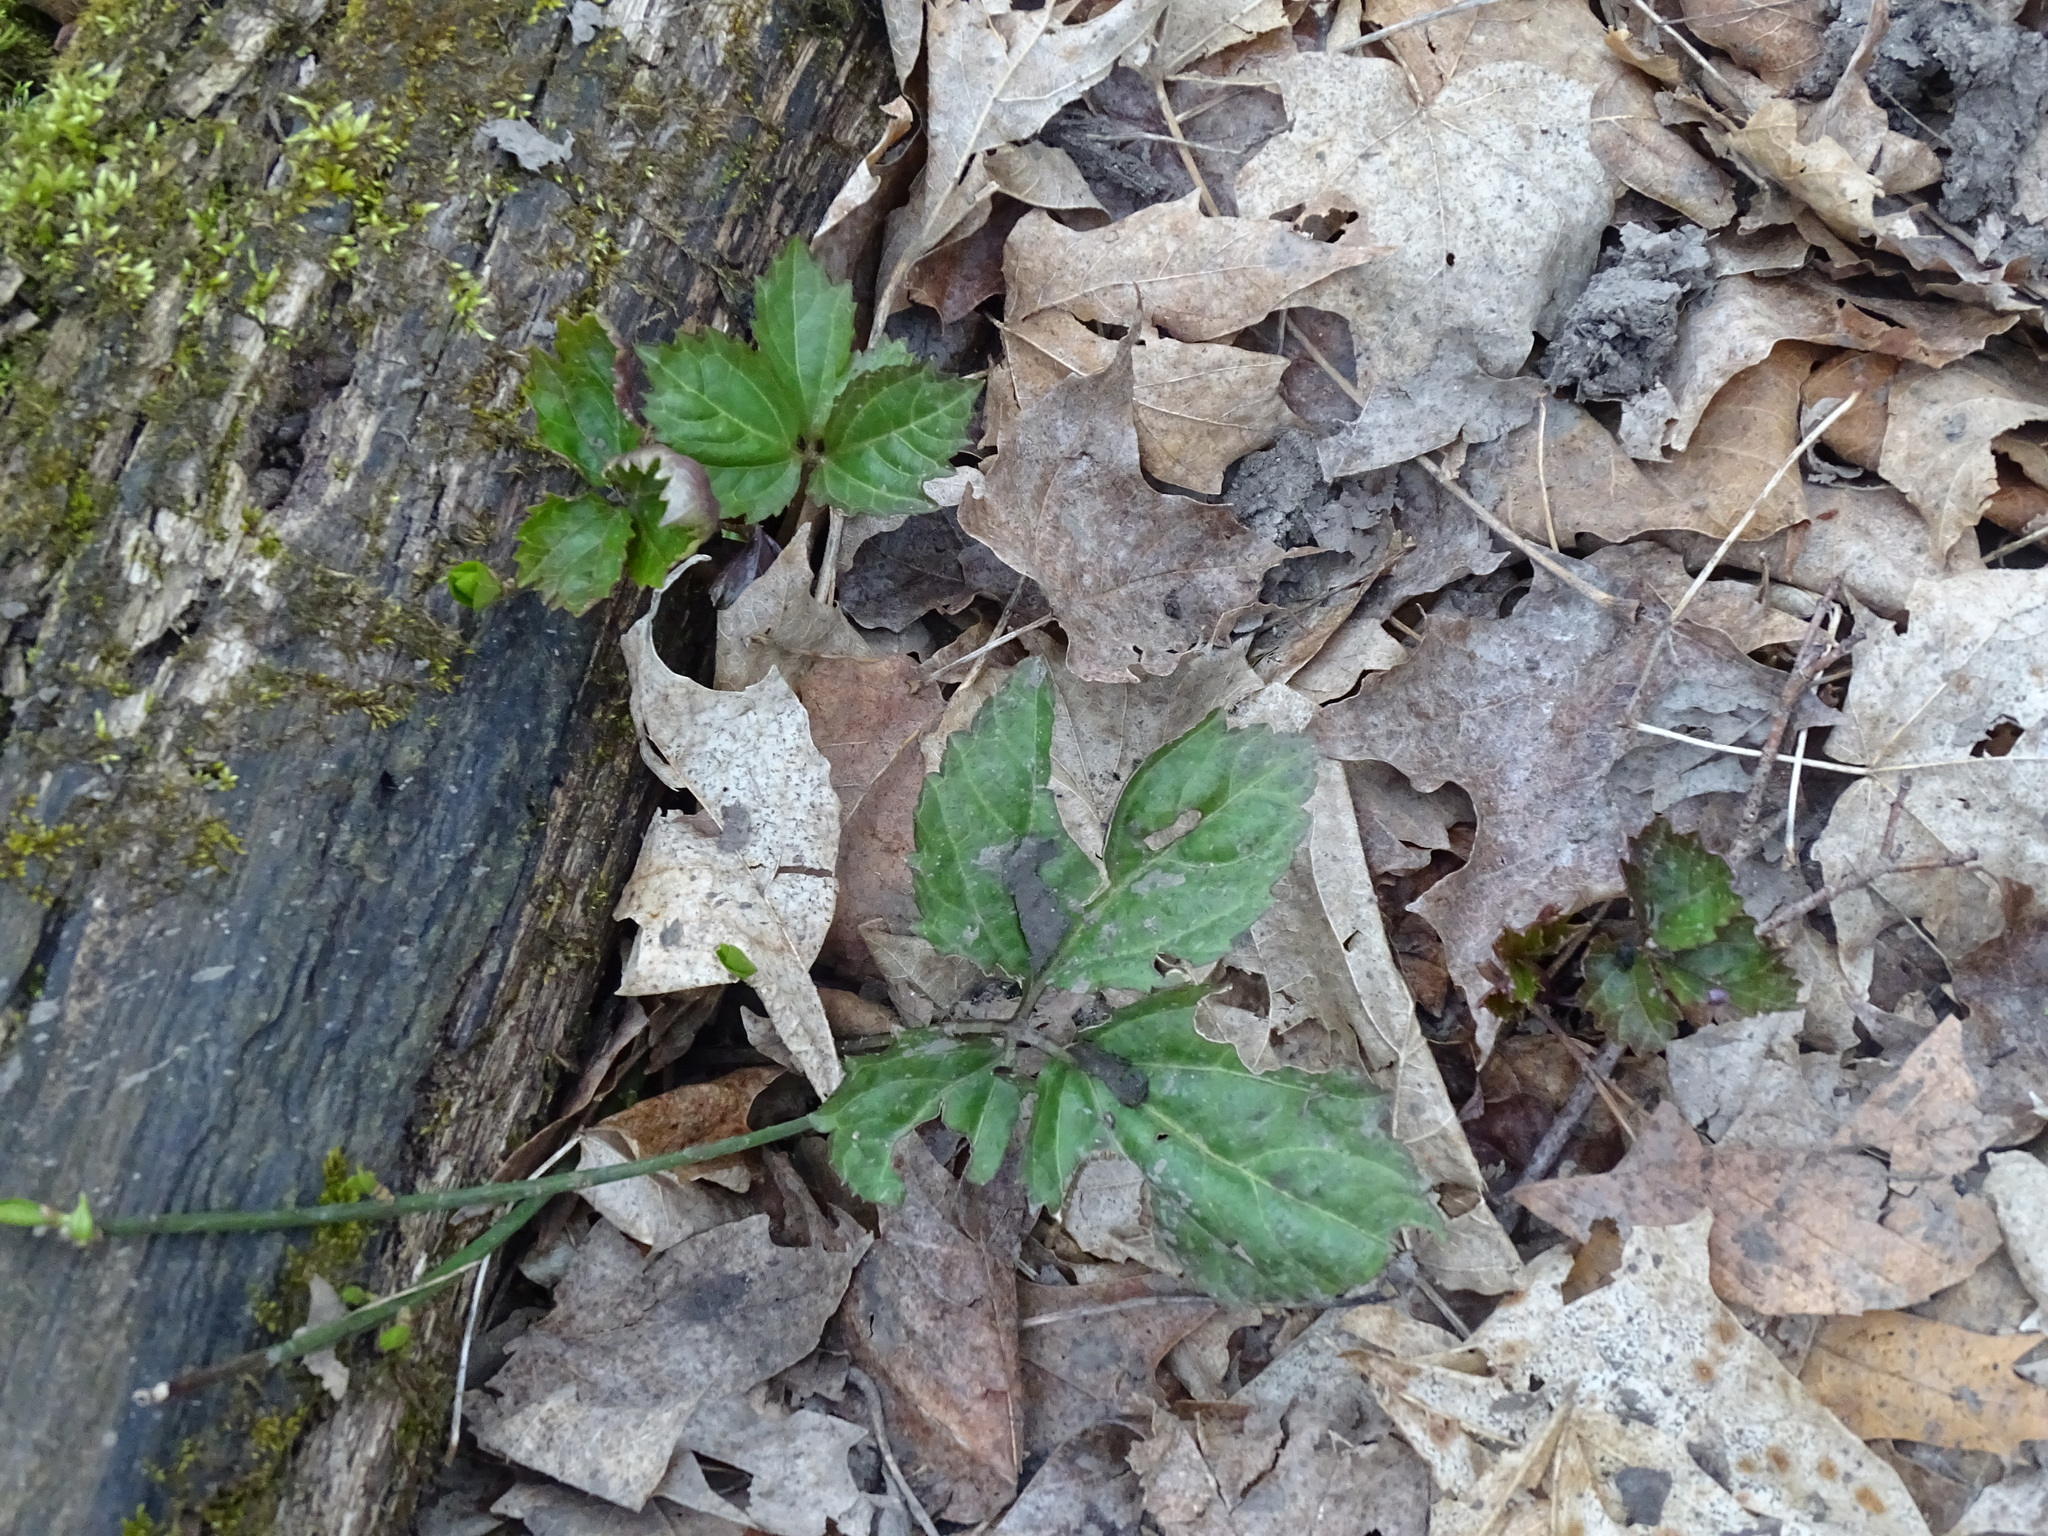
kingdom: Plantae
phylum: Tracheophyta
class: Magnoliopsida
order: Brassicales
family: Brassicaceae
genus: Cardamine
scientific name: Cardamine diphylla
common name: Broad-leaved toothwort
